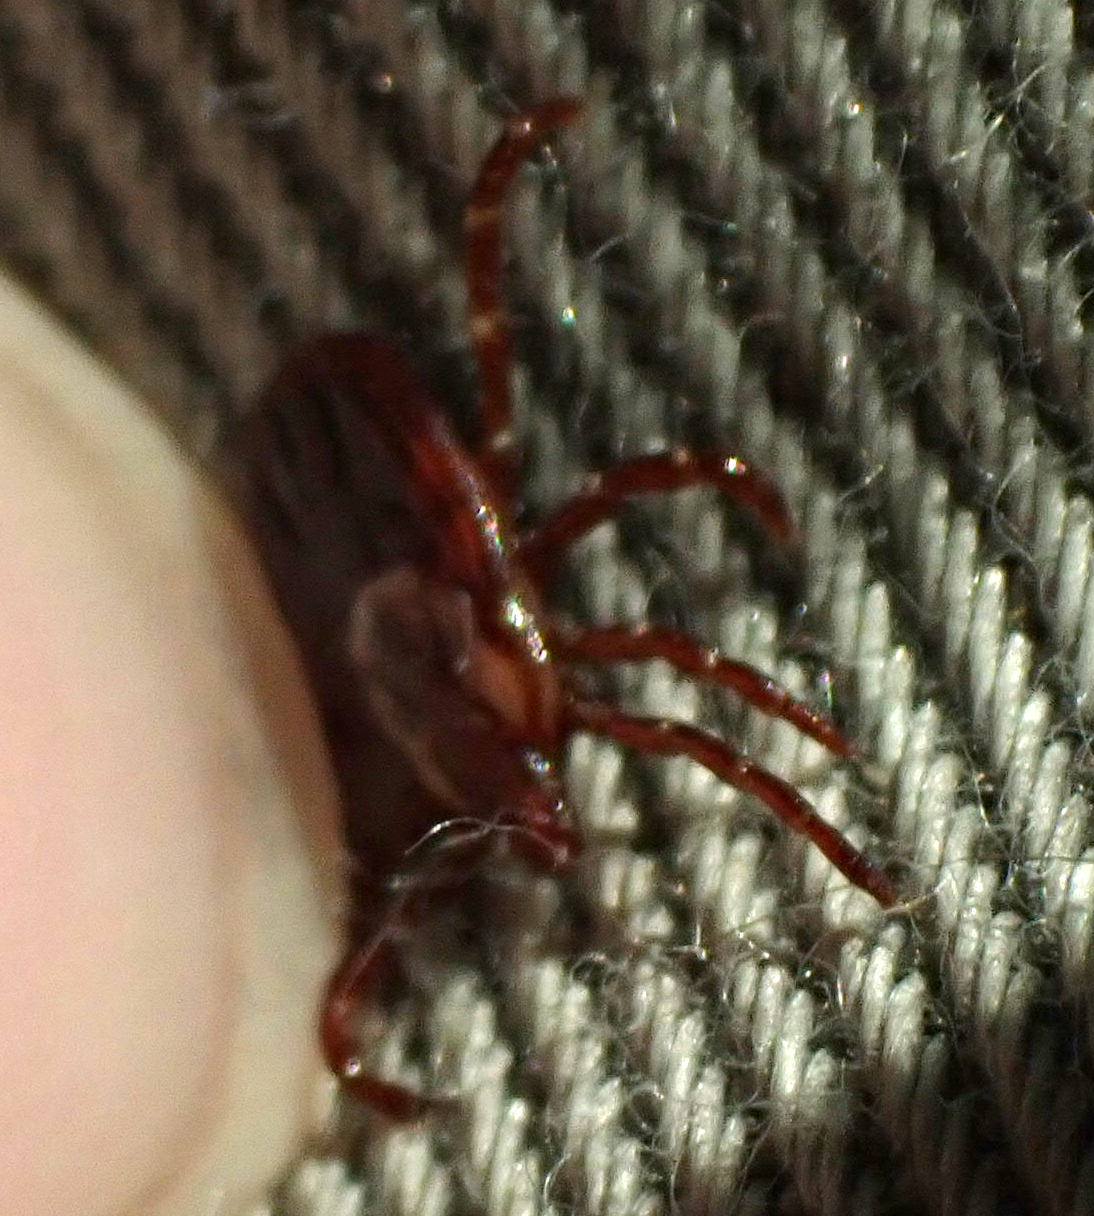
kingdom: Animalia
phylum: Arthropoda
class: Arachnida
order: Ixodida
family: Ixodidae
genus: Dermacentor
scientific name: Dermacentor variabilis
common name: American dog tick
